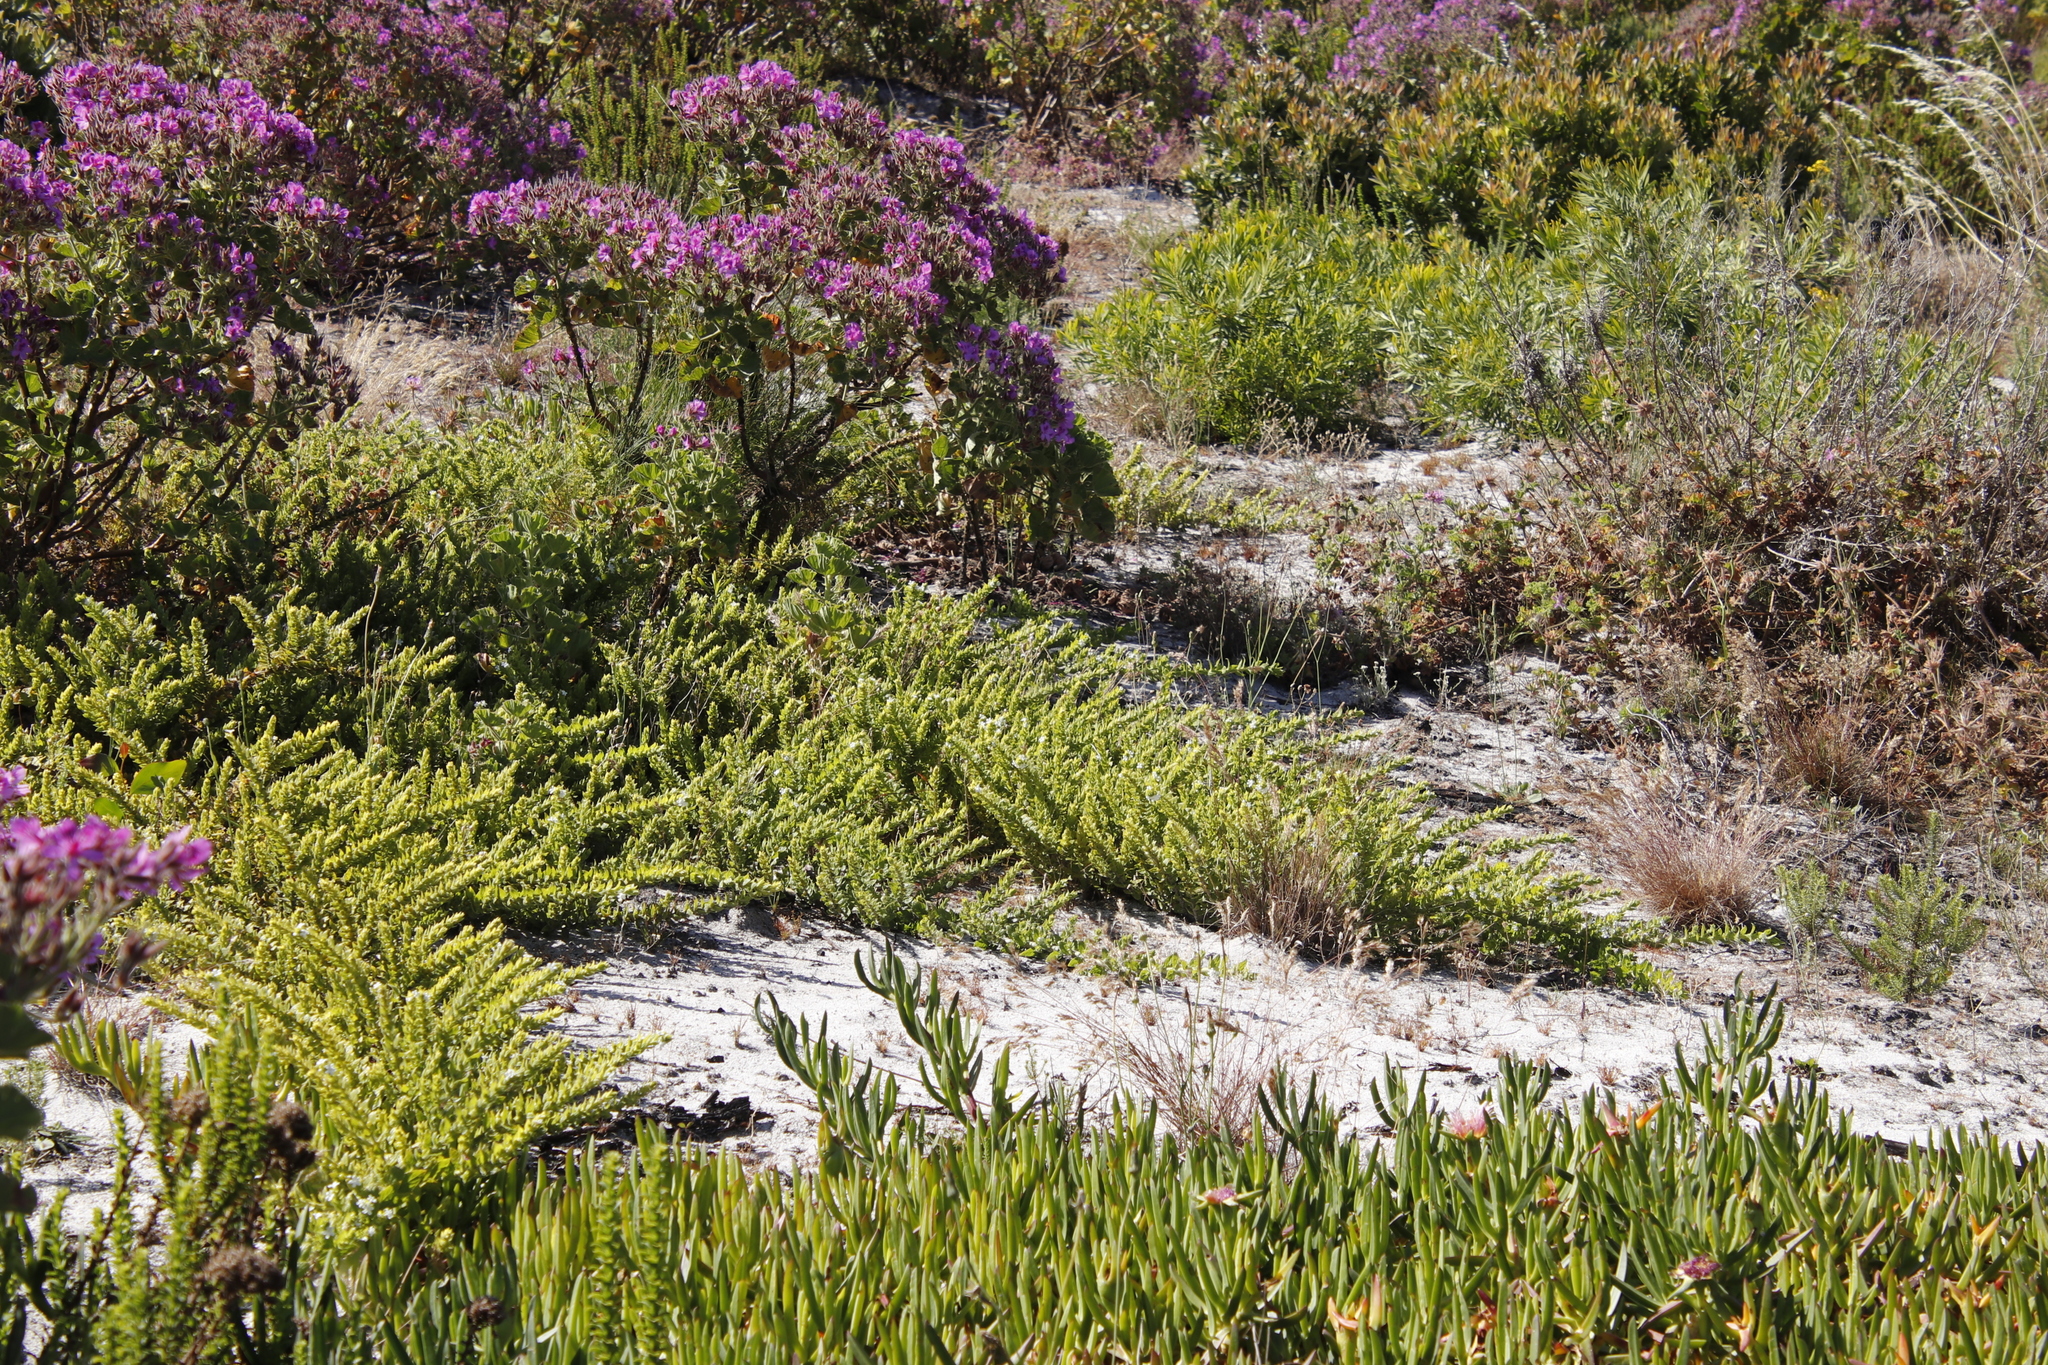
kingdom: Plantae
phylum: Tracheophyta
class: Magnoliopsida
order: Lamiales
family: Scrophulariaceae
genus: Oftia
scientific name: Oftia africana
